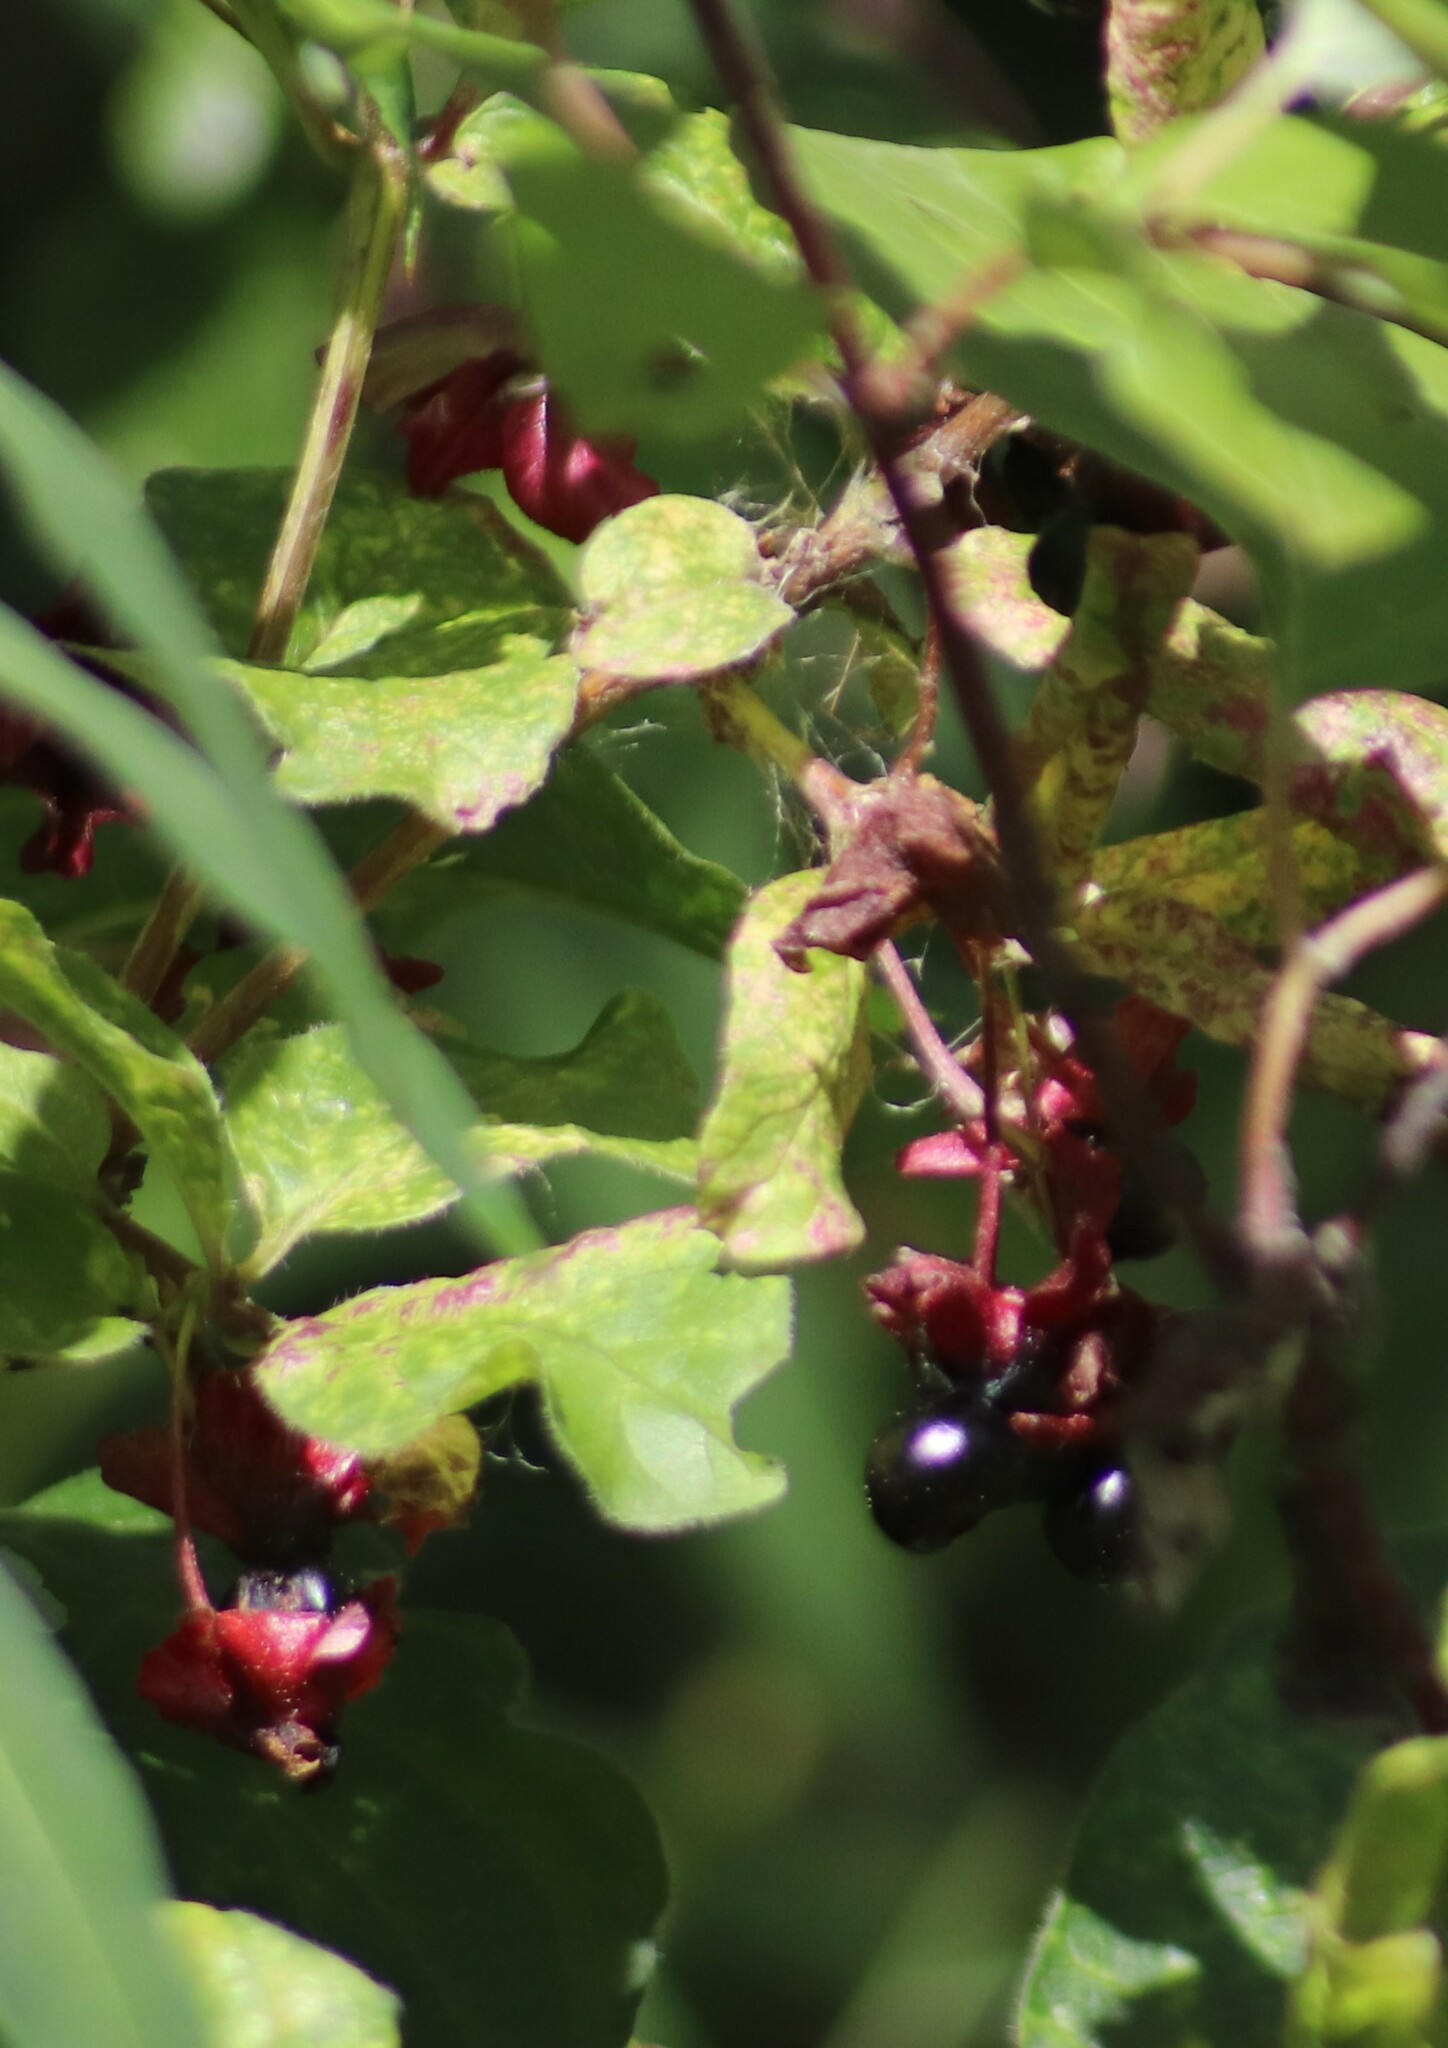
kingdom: Plantae
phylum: Tracheophyta
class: Magnoliopsida
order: Dipsacales
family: Caprifoliaceae
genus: Lonicera
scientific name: Lonicera involucrata
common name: Californian honeysuckle
